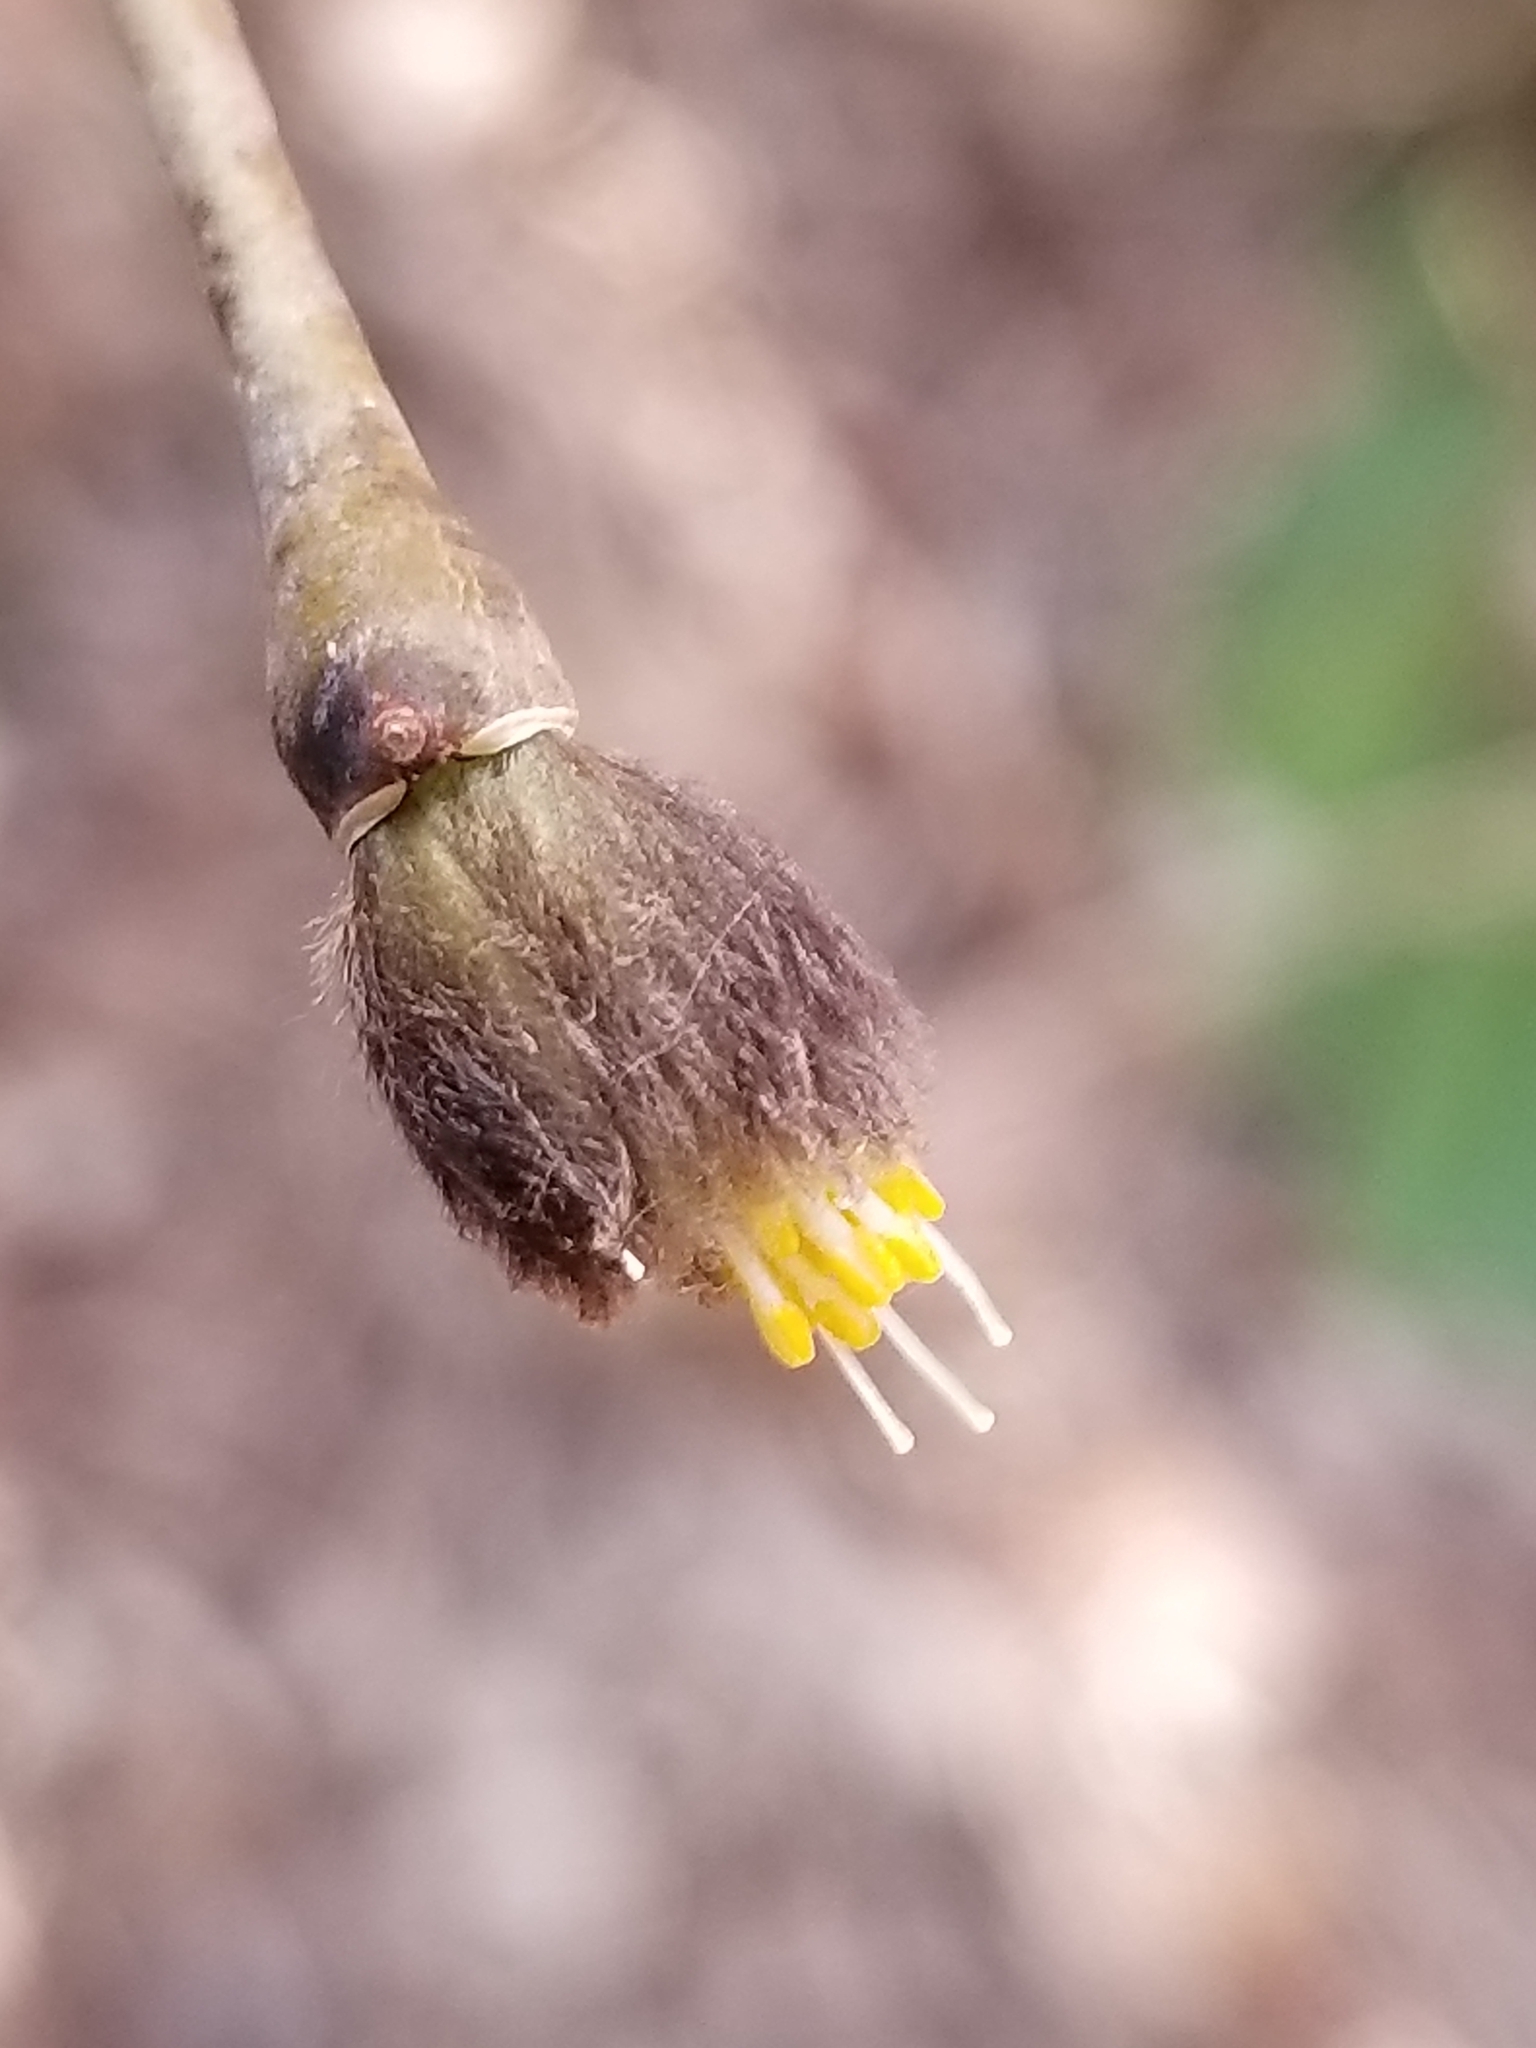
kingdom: Plantae
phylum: Tracheophyta
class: Magnoliopsida
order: Malvales
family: Thymelaeaceae
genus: Dirca
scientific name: Dirca palustris
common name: Leatherwood
